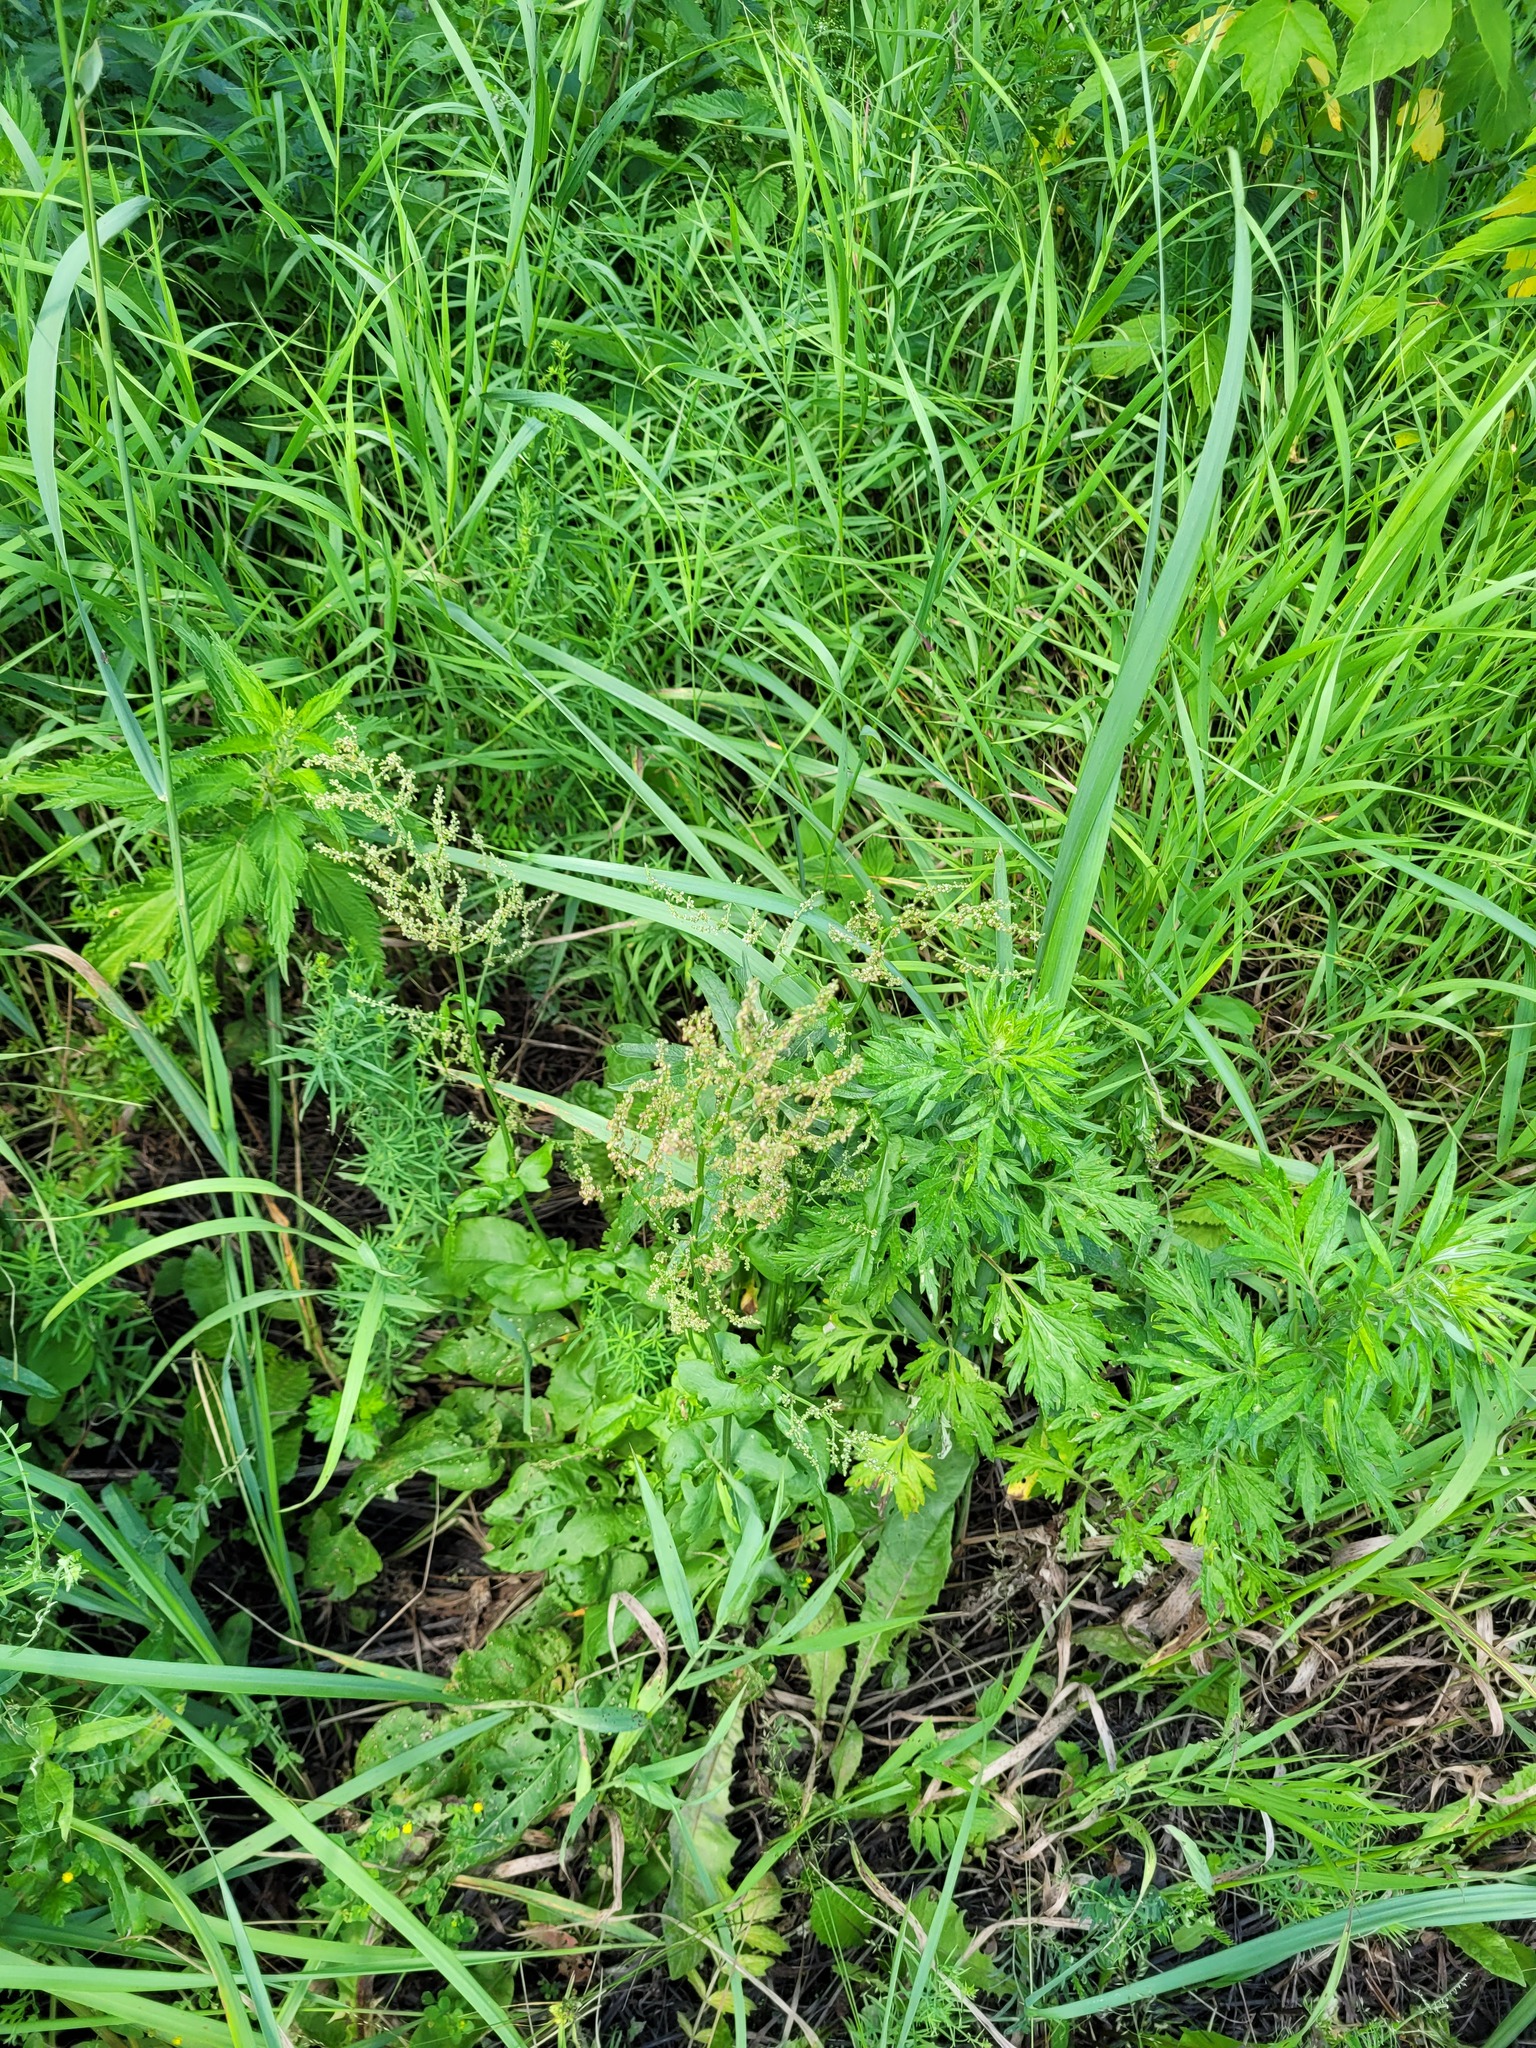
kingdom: Plantae
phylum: Tracheophyta
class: Magnoliopsida
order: Caryophyllales
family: Polygonaceae
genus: Rumex
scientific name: Rumex thyrsiflorus
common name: Garden sorrel
